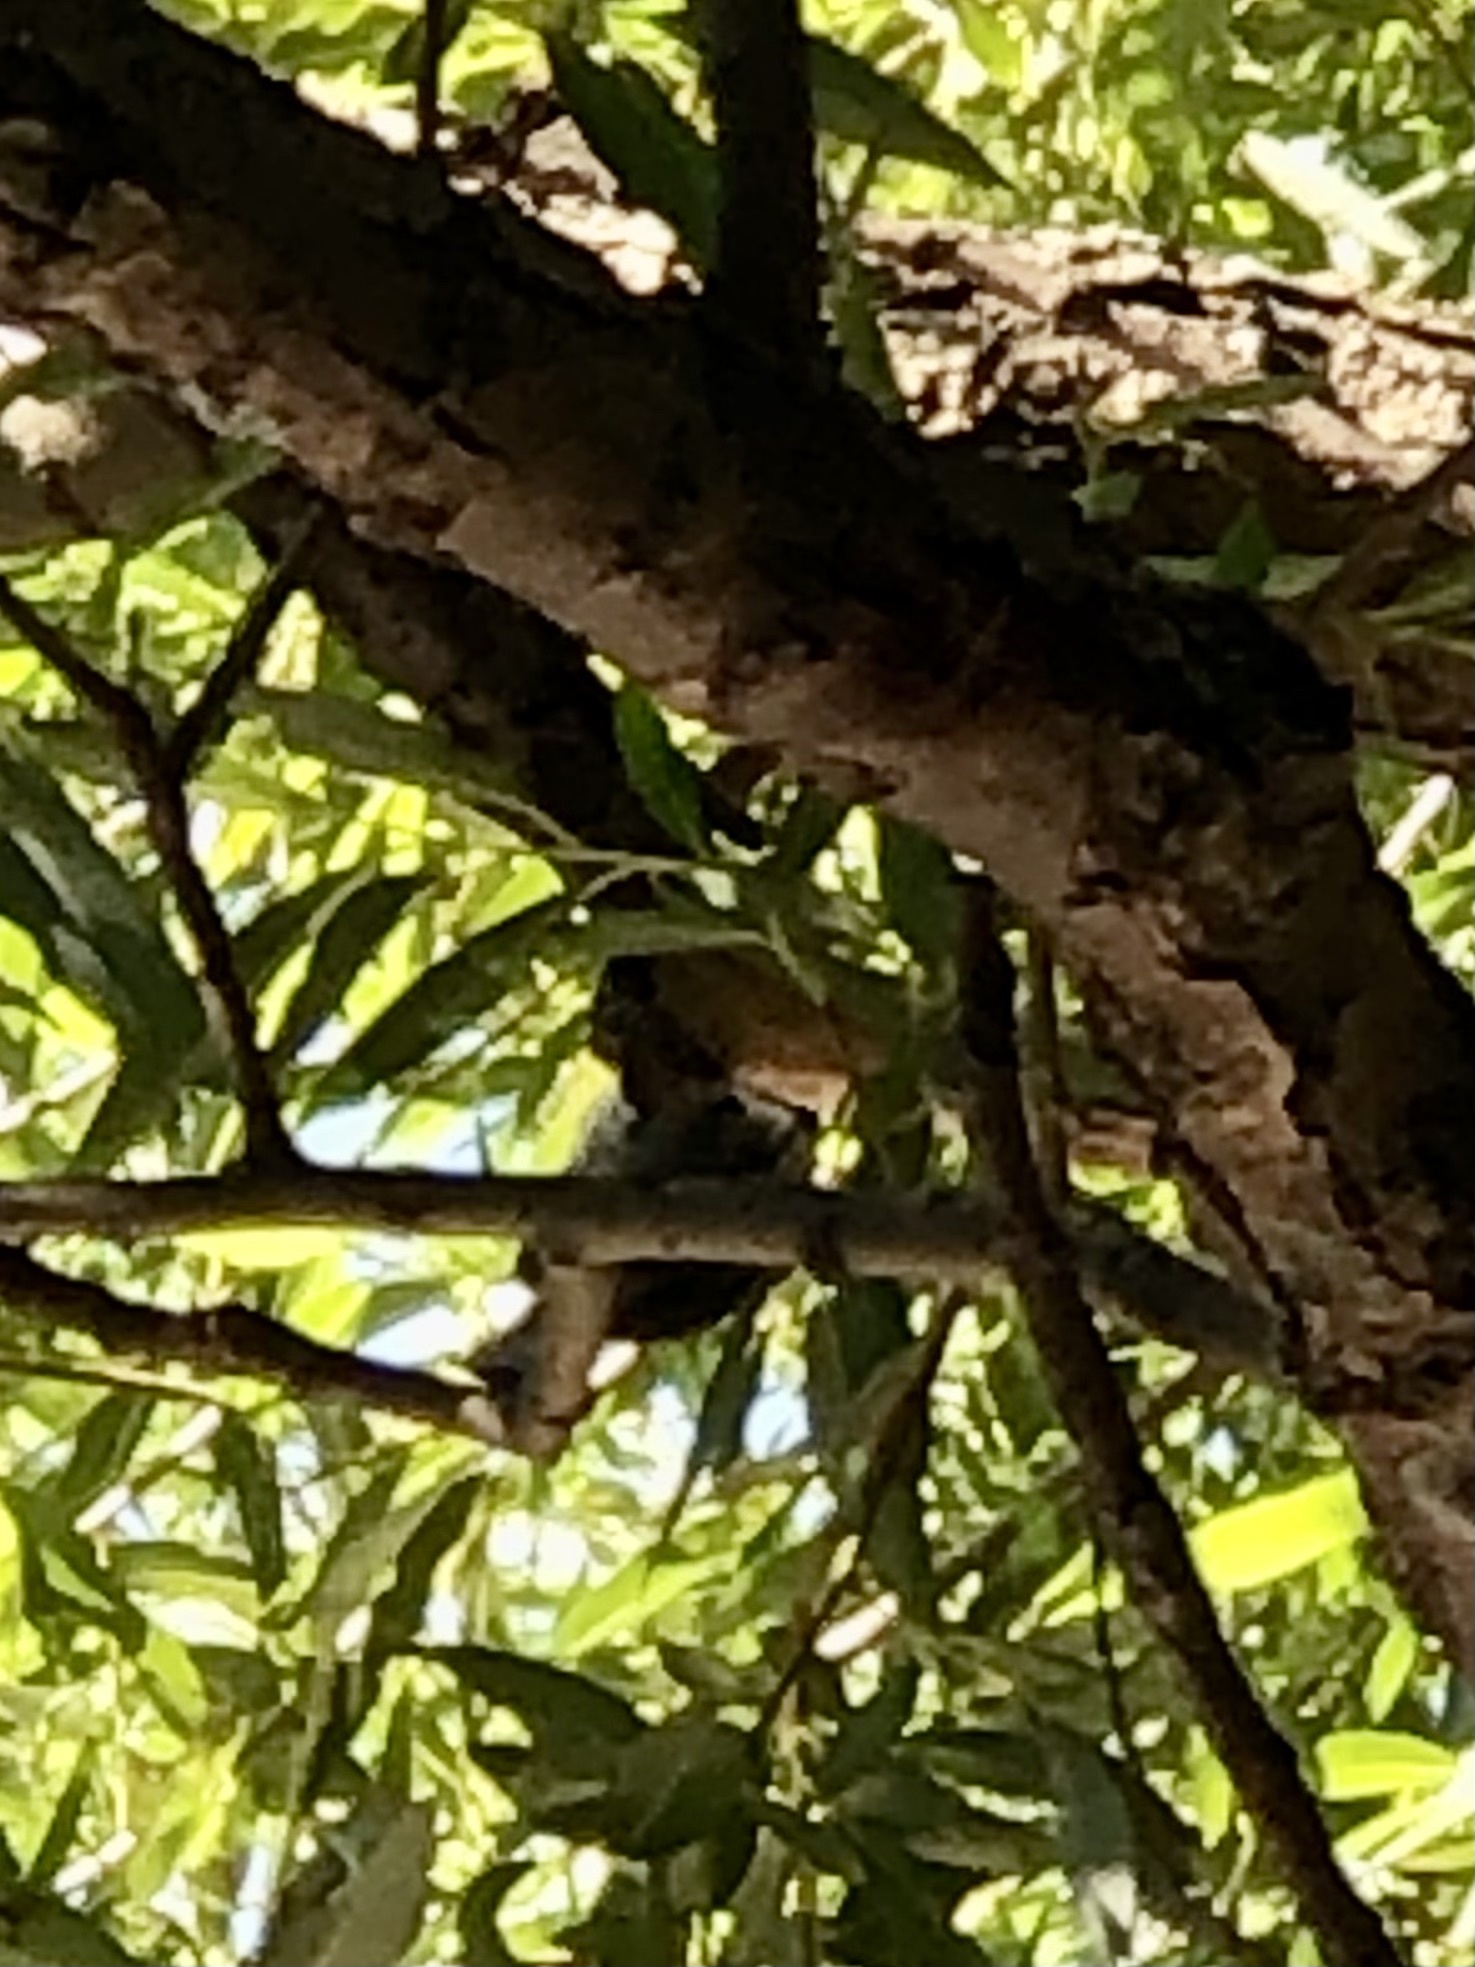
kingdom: Animalia
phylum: Chordata
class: Aves
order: Passeriformes
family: Paridae
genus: Poecile
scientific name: Poecile atricapillus
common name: Black-capped chickadee
